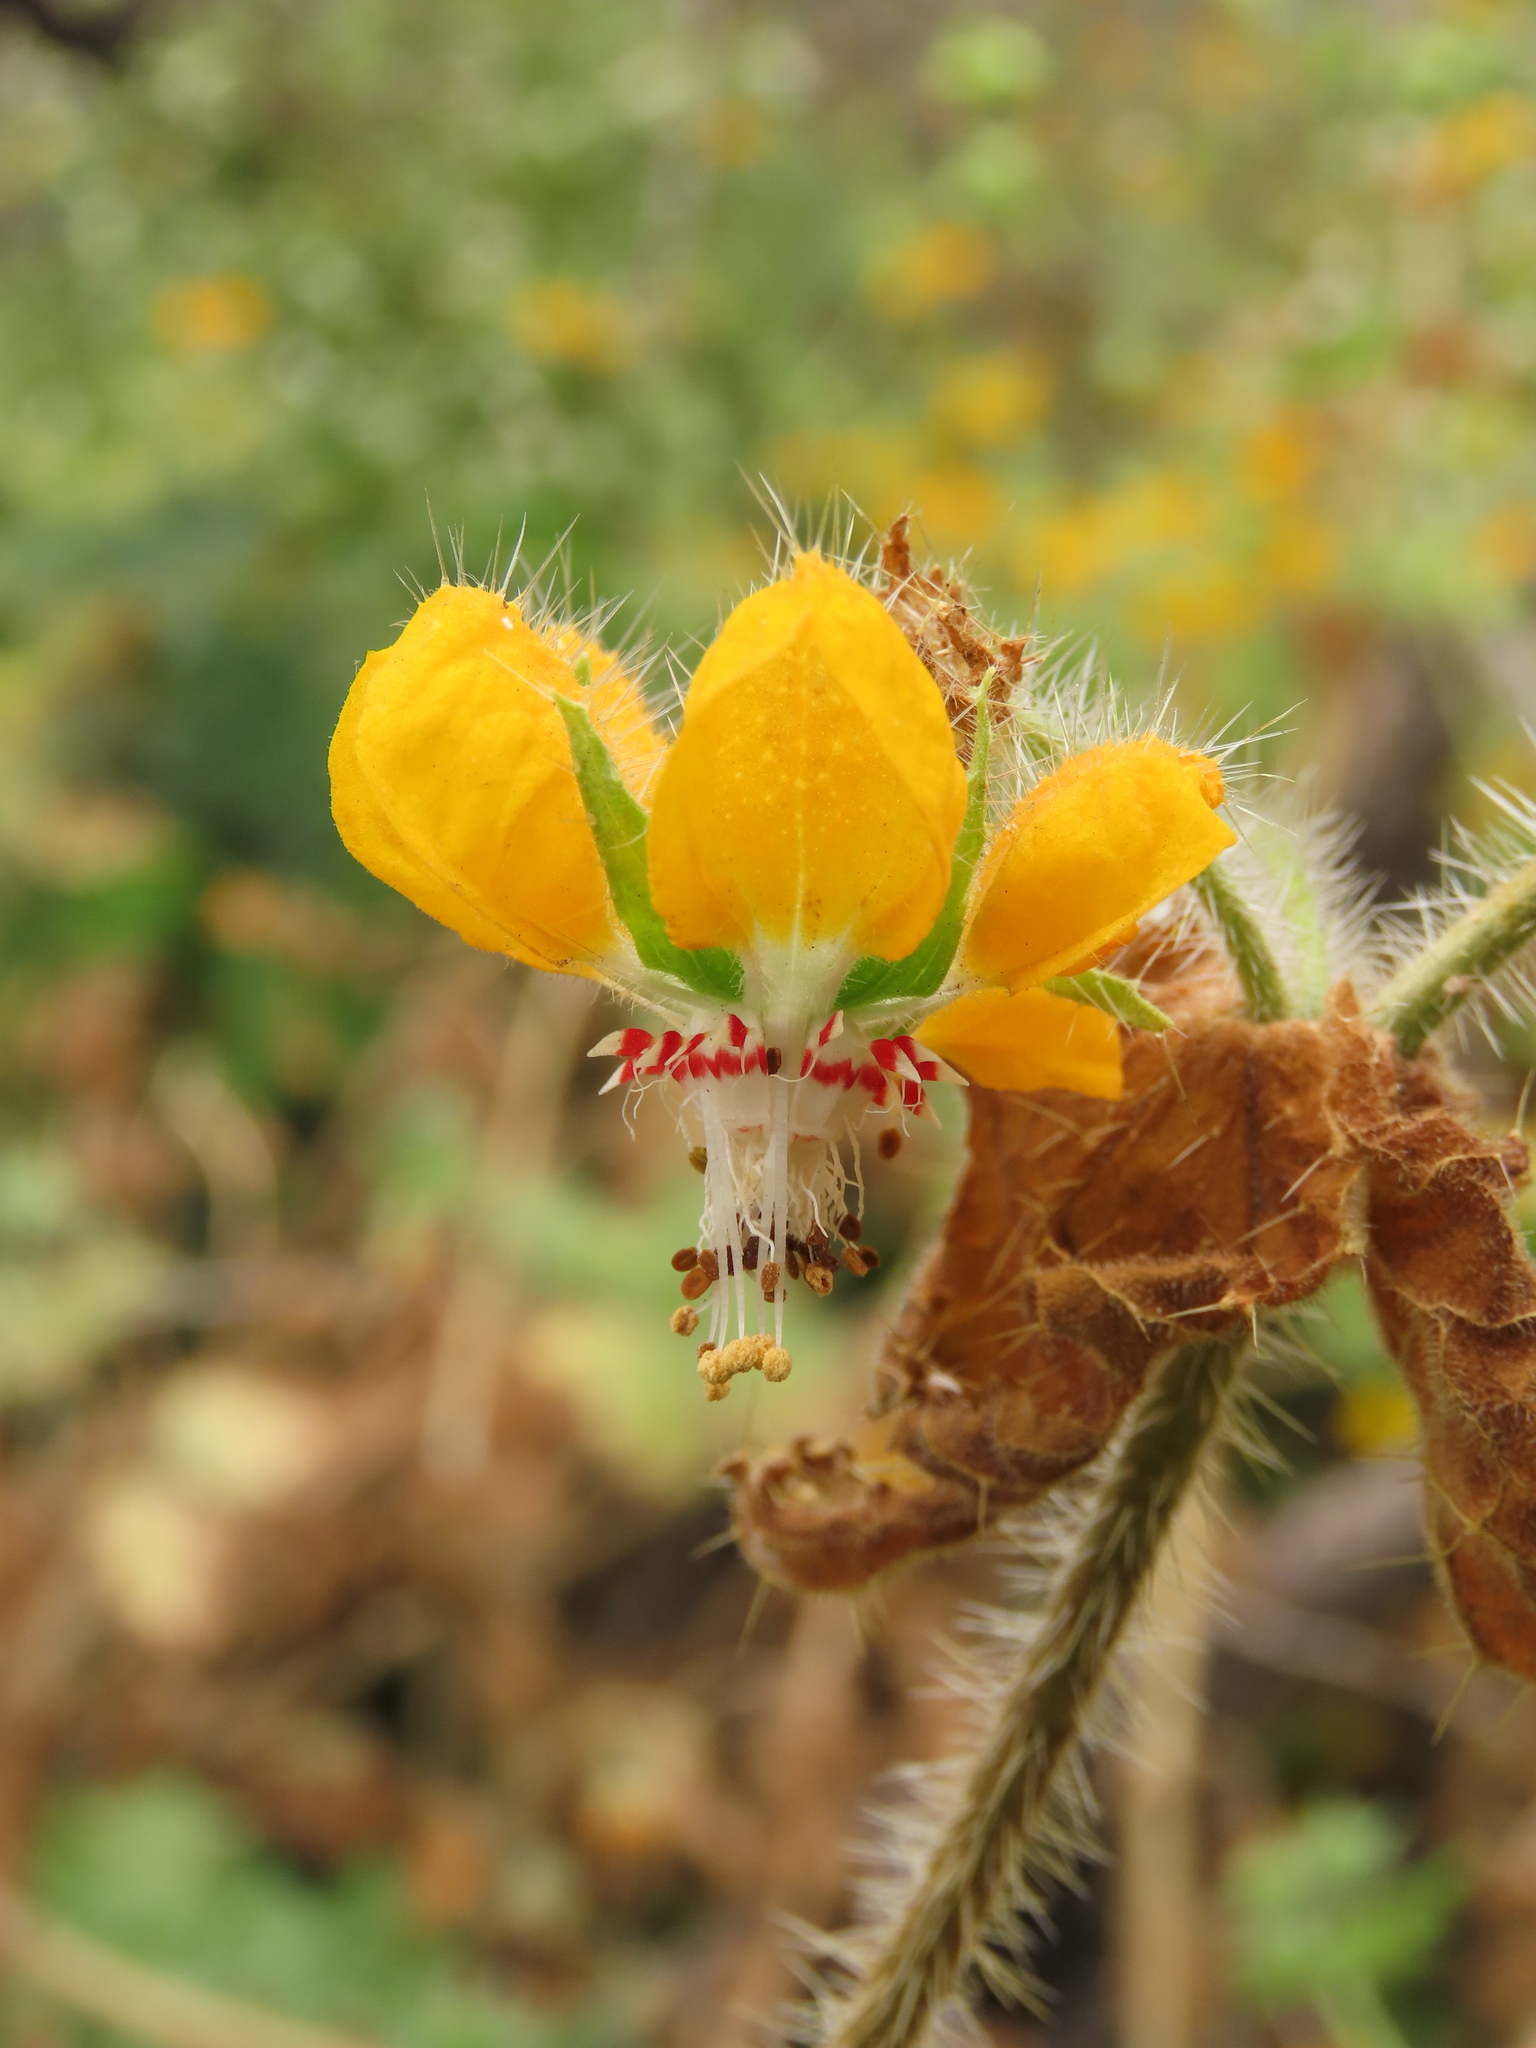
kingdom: Plantae
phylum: Tracheophyta
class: Magnoliopsida
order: Cornales
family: Loasaceae
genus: Loasa
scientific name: Loasa placei
